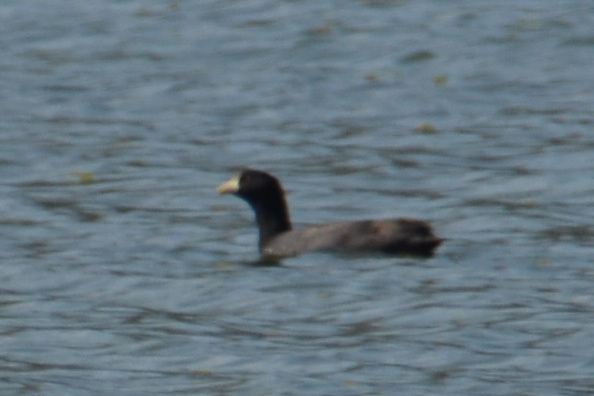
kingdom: Animalia
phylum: Chordata
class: Aves
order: Gruiformes
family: Rallidae
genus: Fulica
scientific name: Fulica leucoptera
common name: White-winged coot
